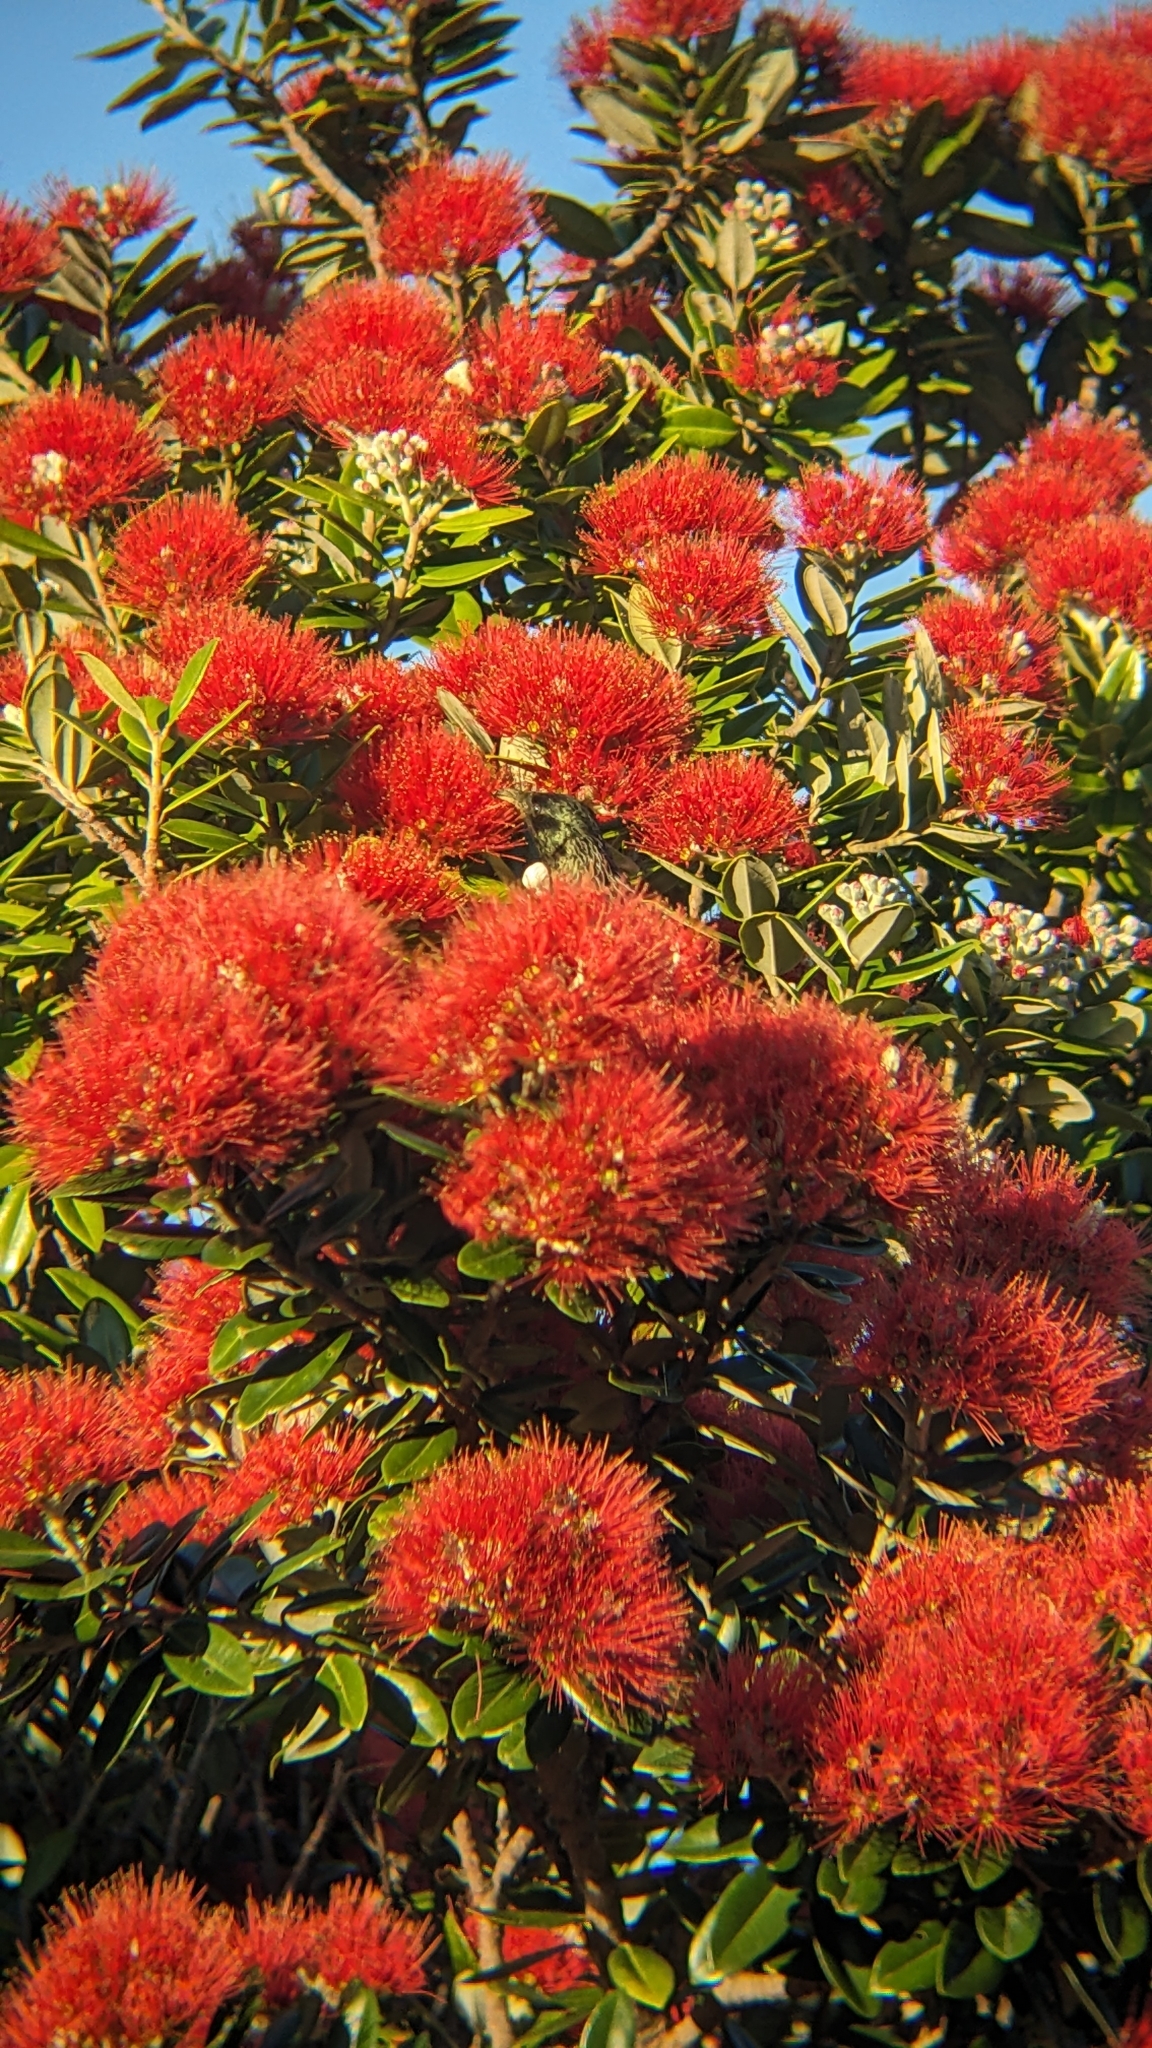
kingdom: Animalia
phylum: Chordata
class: Aves
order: Passeriformes
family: Meliphagidae
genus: Prosthemadera
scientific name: Prosthemadera novaeseelandiae
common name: Tui
